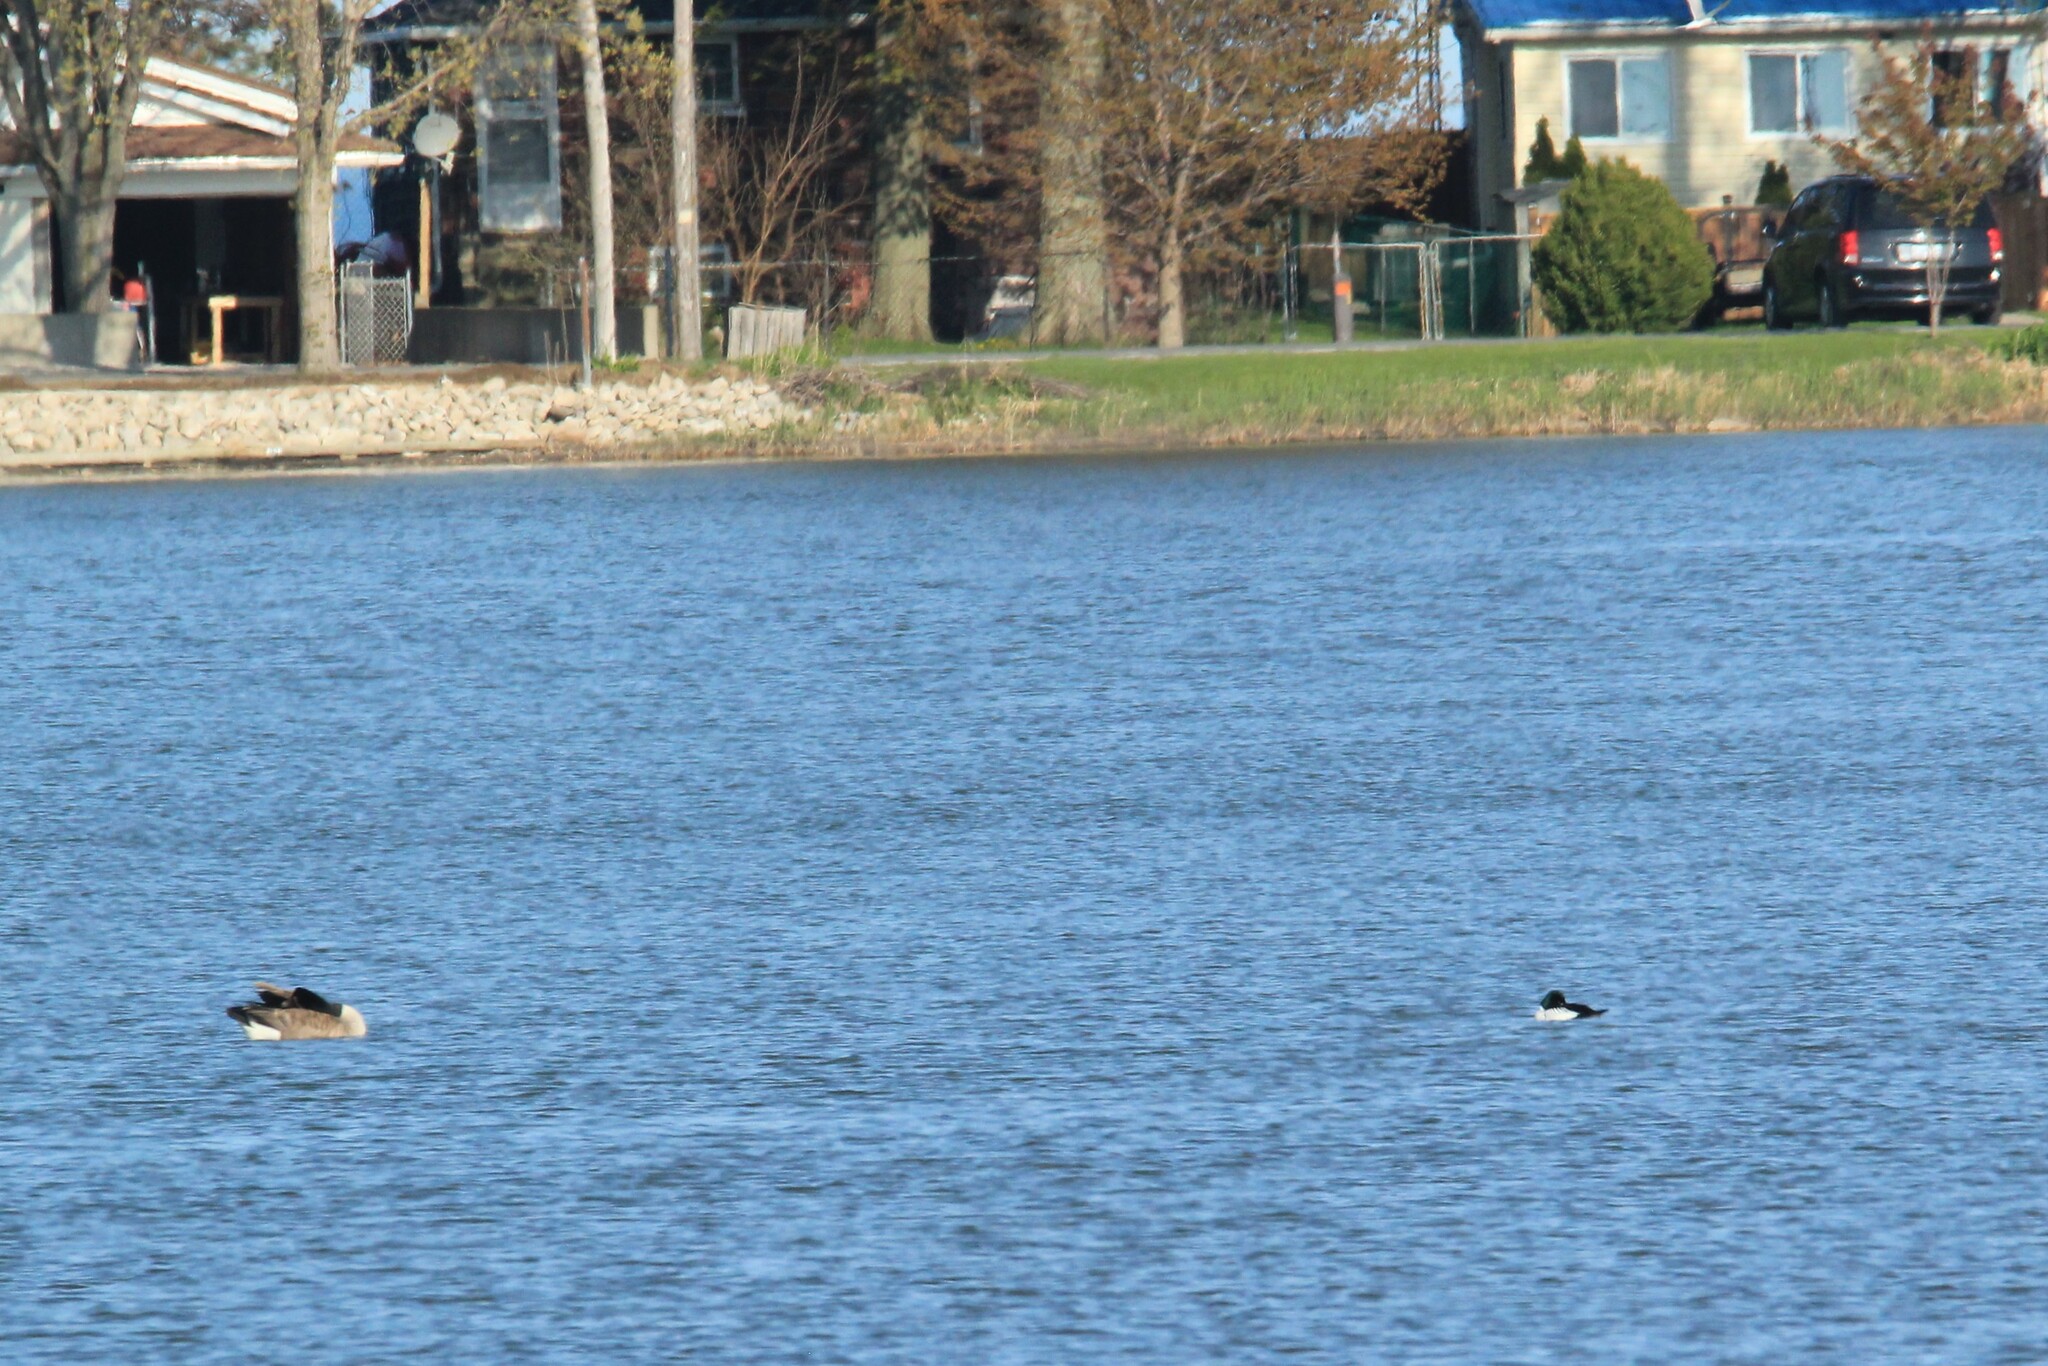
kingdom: Animalia
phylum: Chordata
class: Aves
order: Anseriformes
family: Anatidae
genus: Bucephala
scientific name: Bucephala clangula
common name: Common goldeneye
